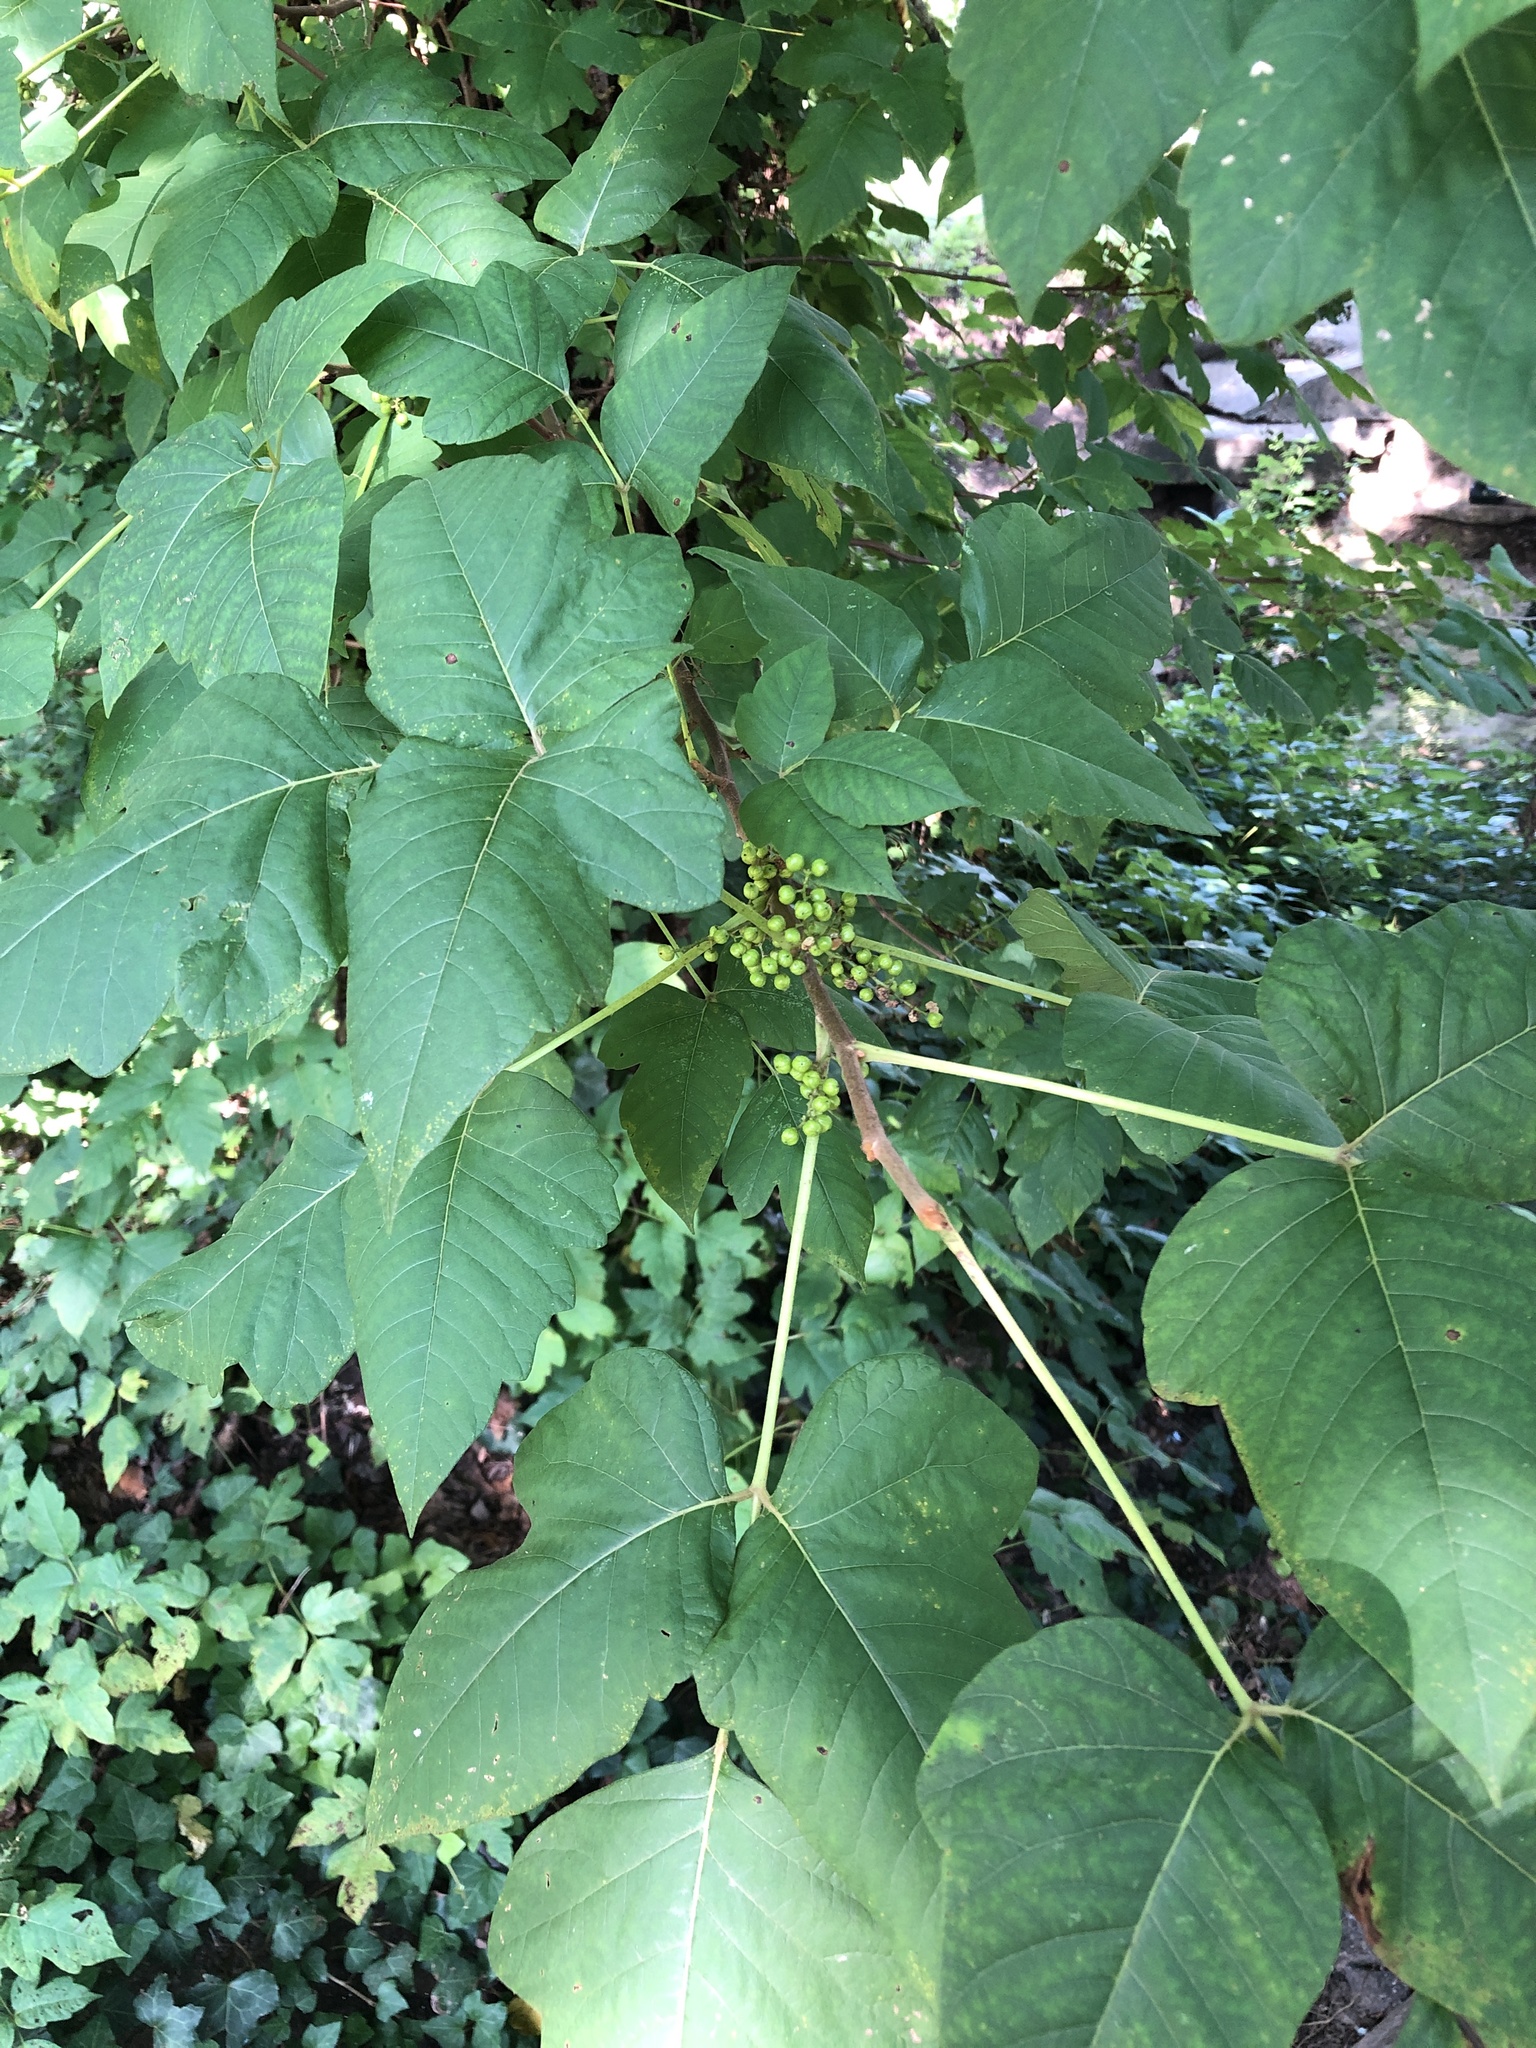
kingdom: Plantae
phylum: Tracheophyta
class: Magnoliopsida
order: Sapindales
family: Anacardiaceae
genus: Toxicodendron
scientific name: Toxicodendron radicans
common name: Poison ivy
